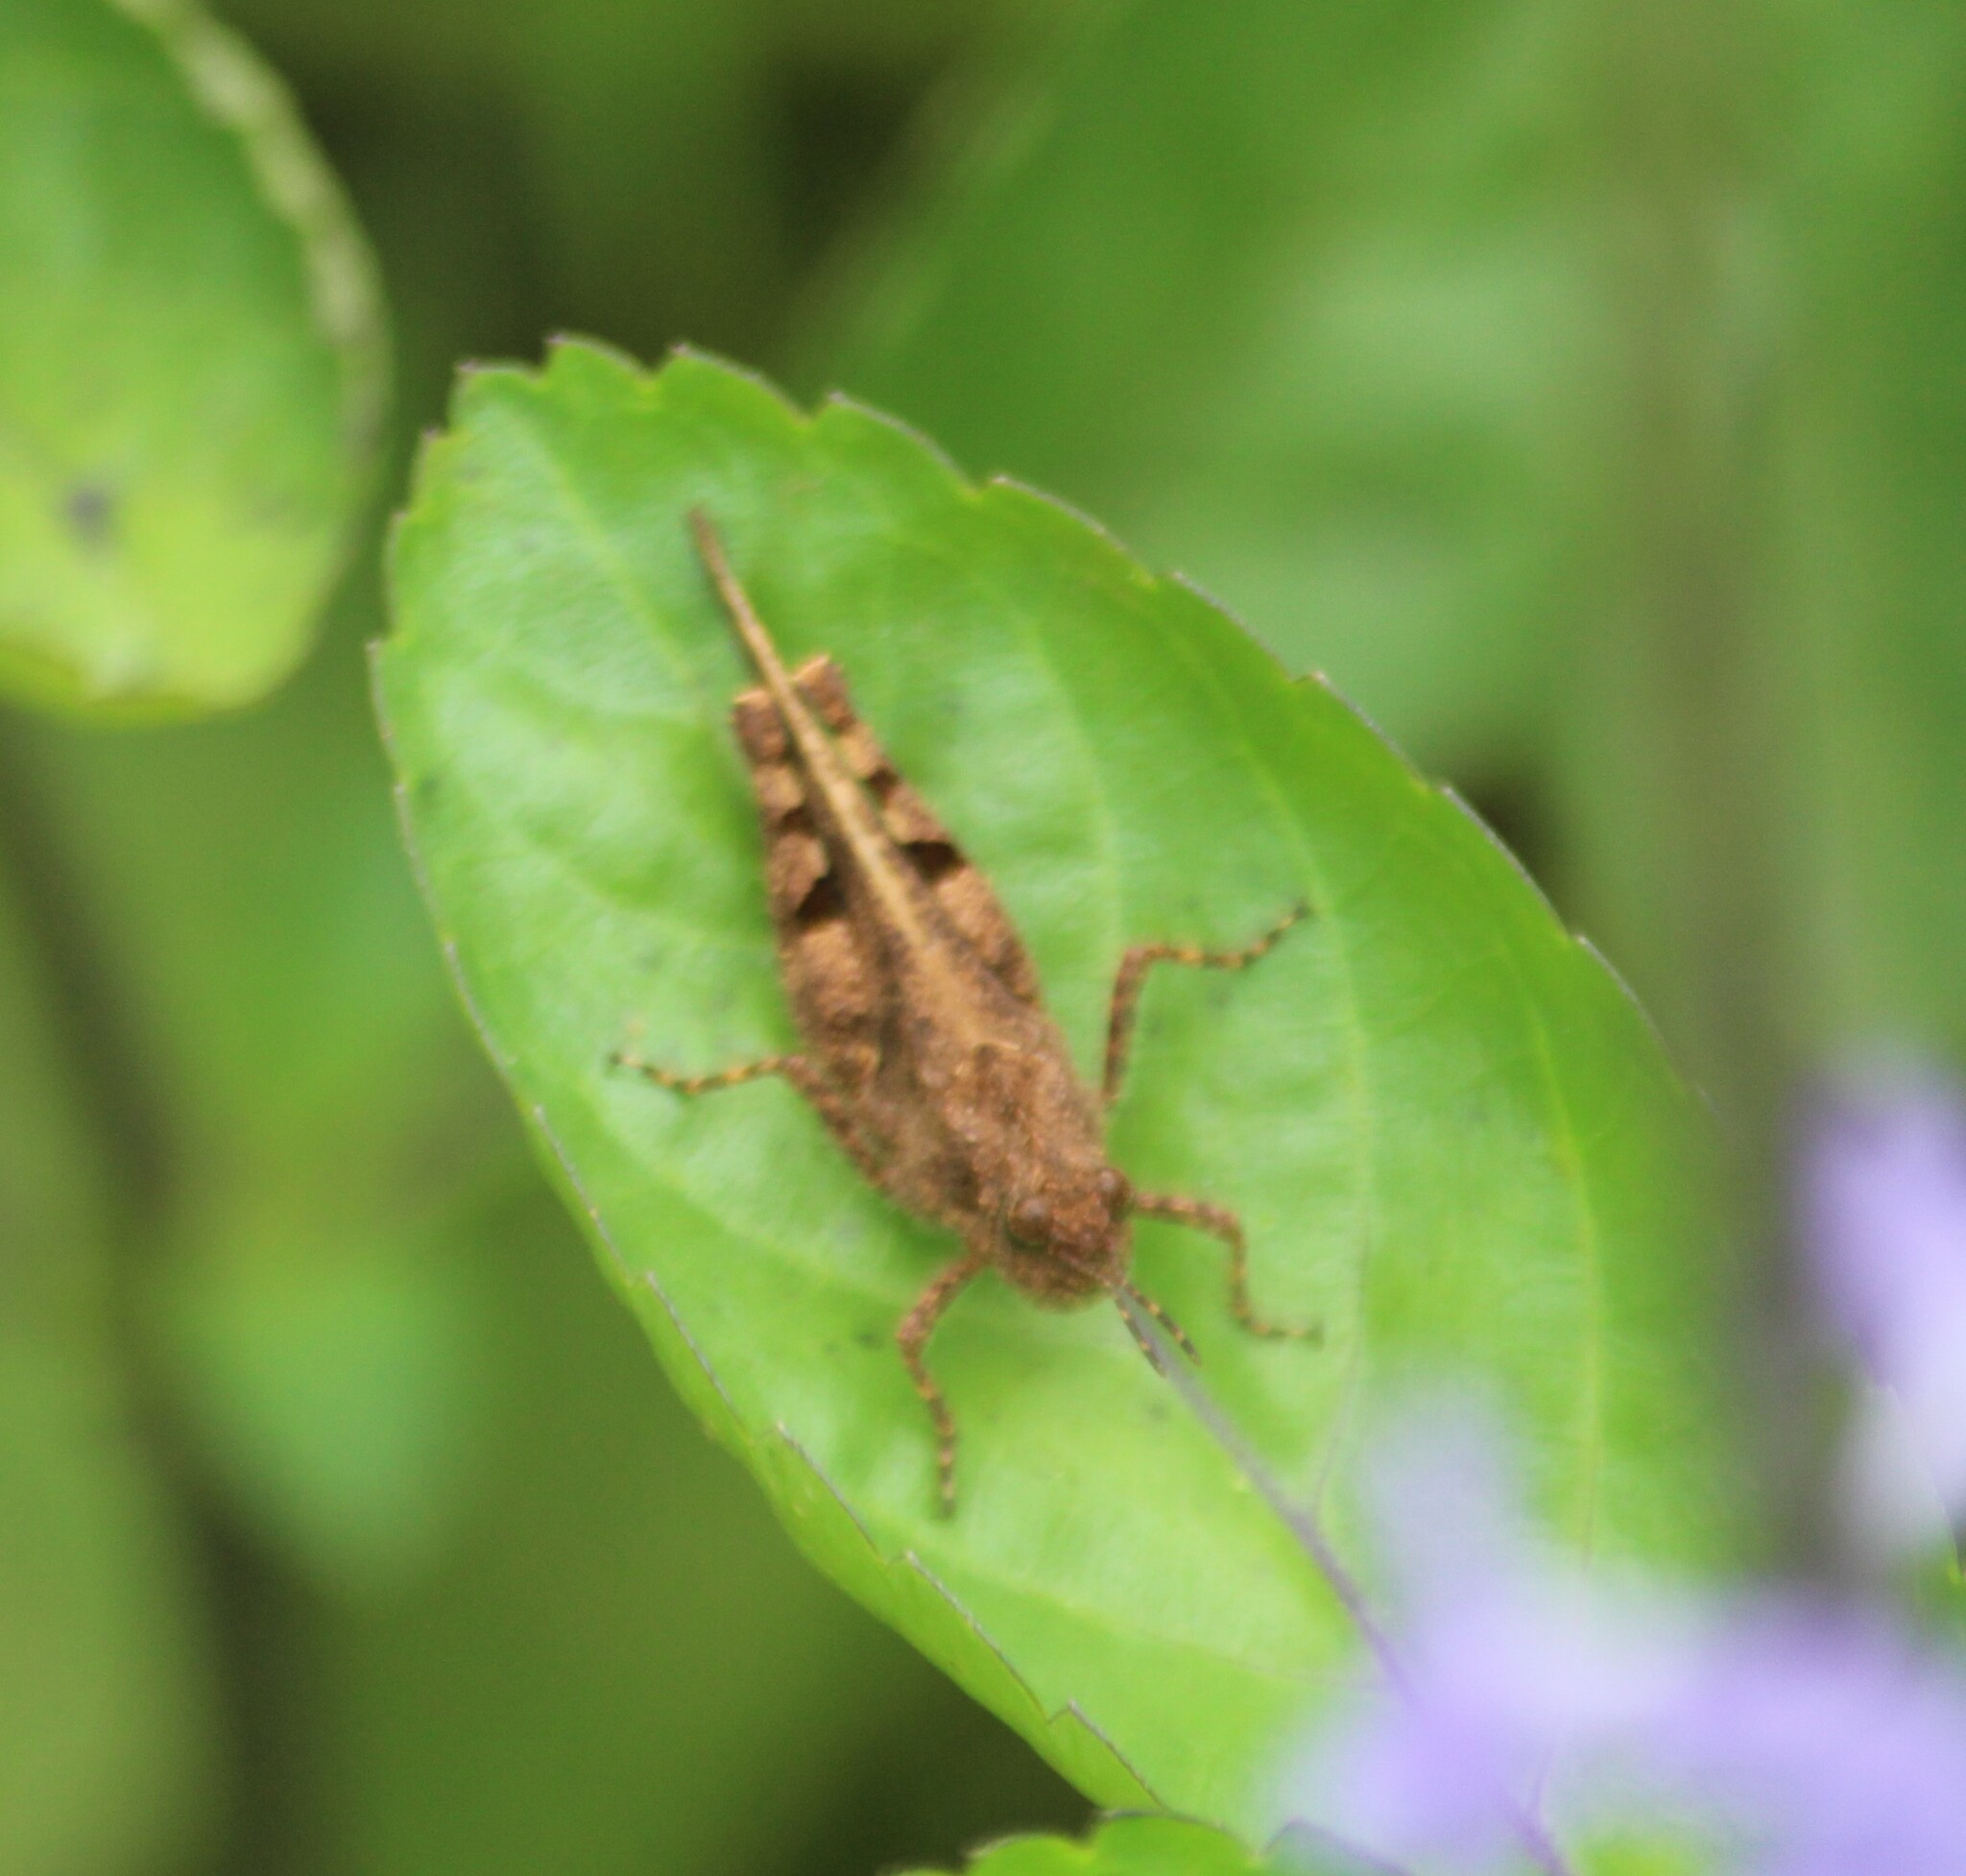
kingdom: Animalia
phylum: Arthropoda
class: Insecta
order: Orthoptera
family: Acrididae
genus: Trilophidia
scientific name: Trilophidia annulata
